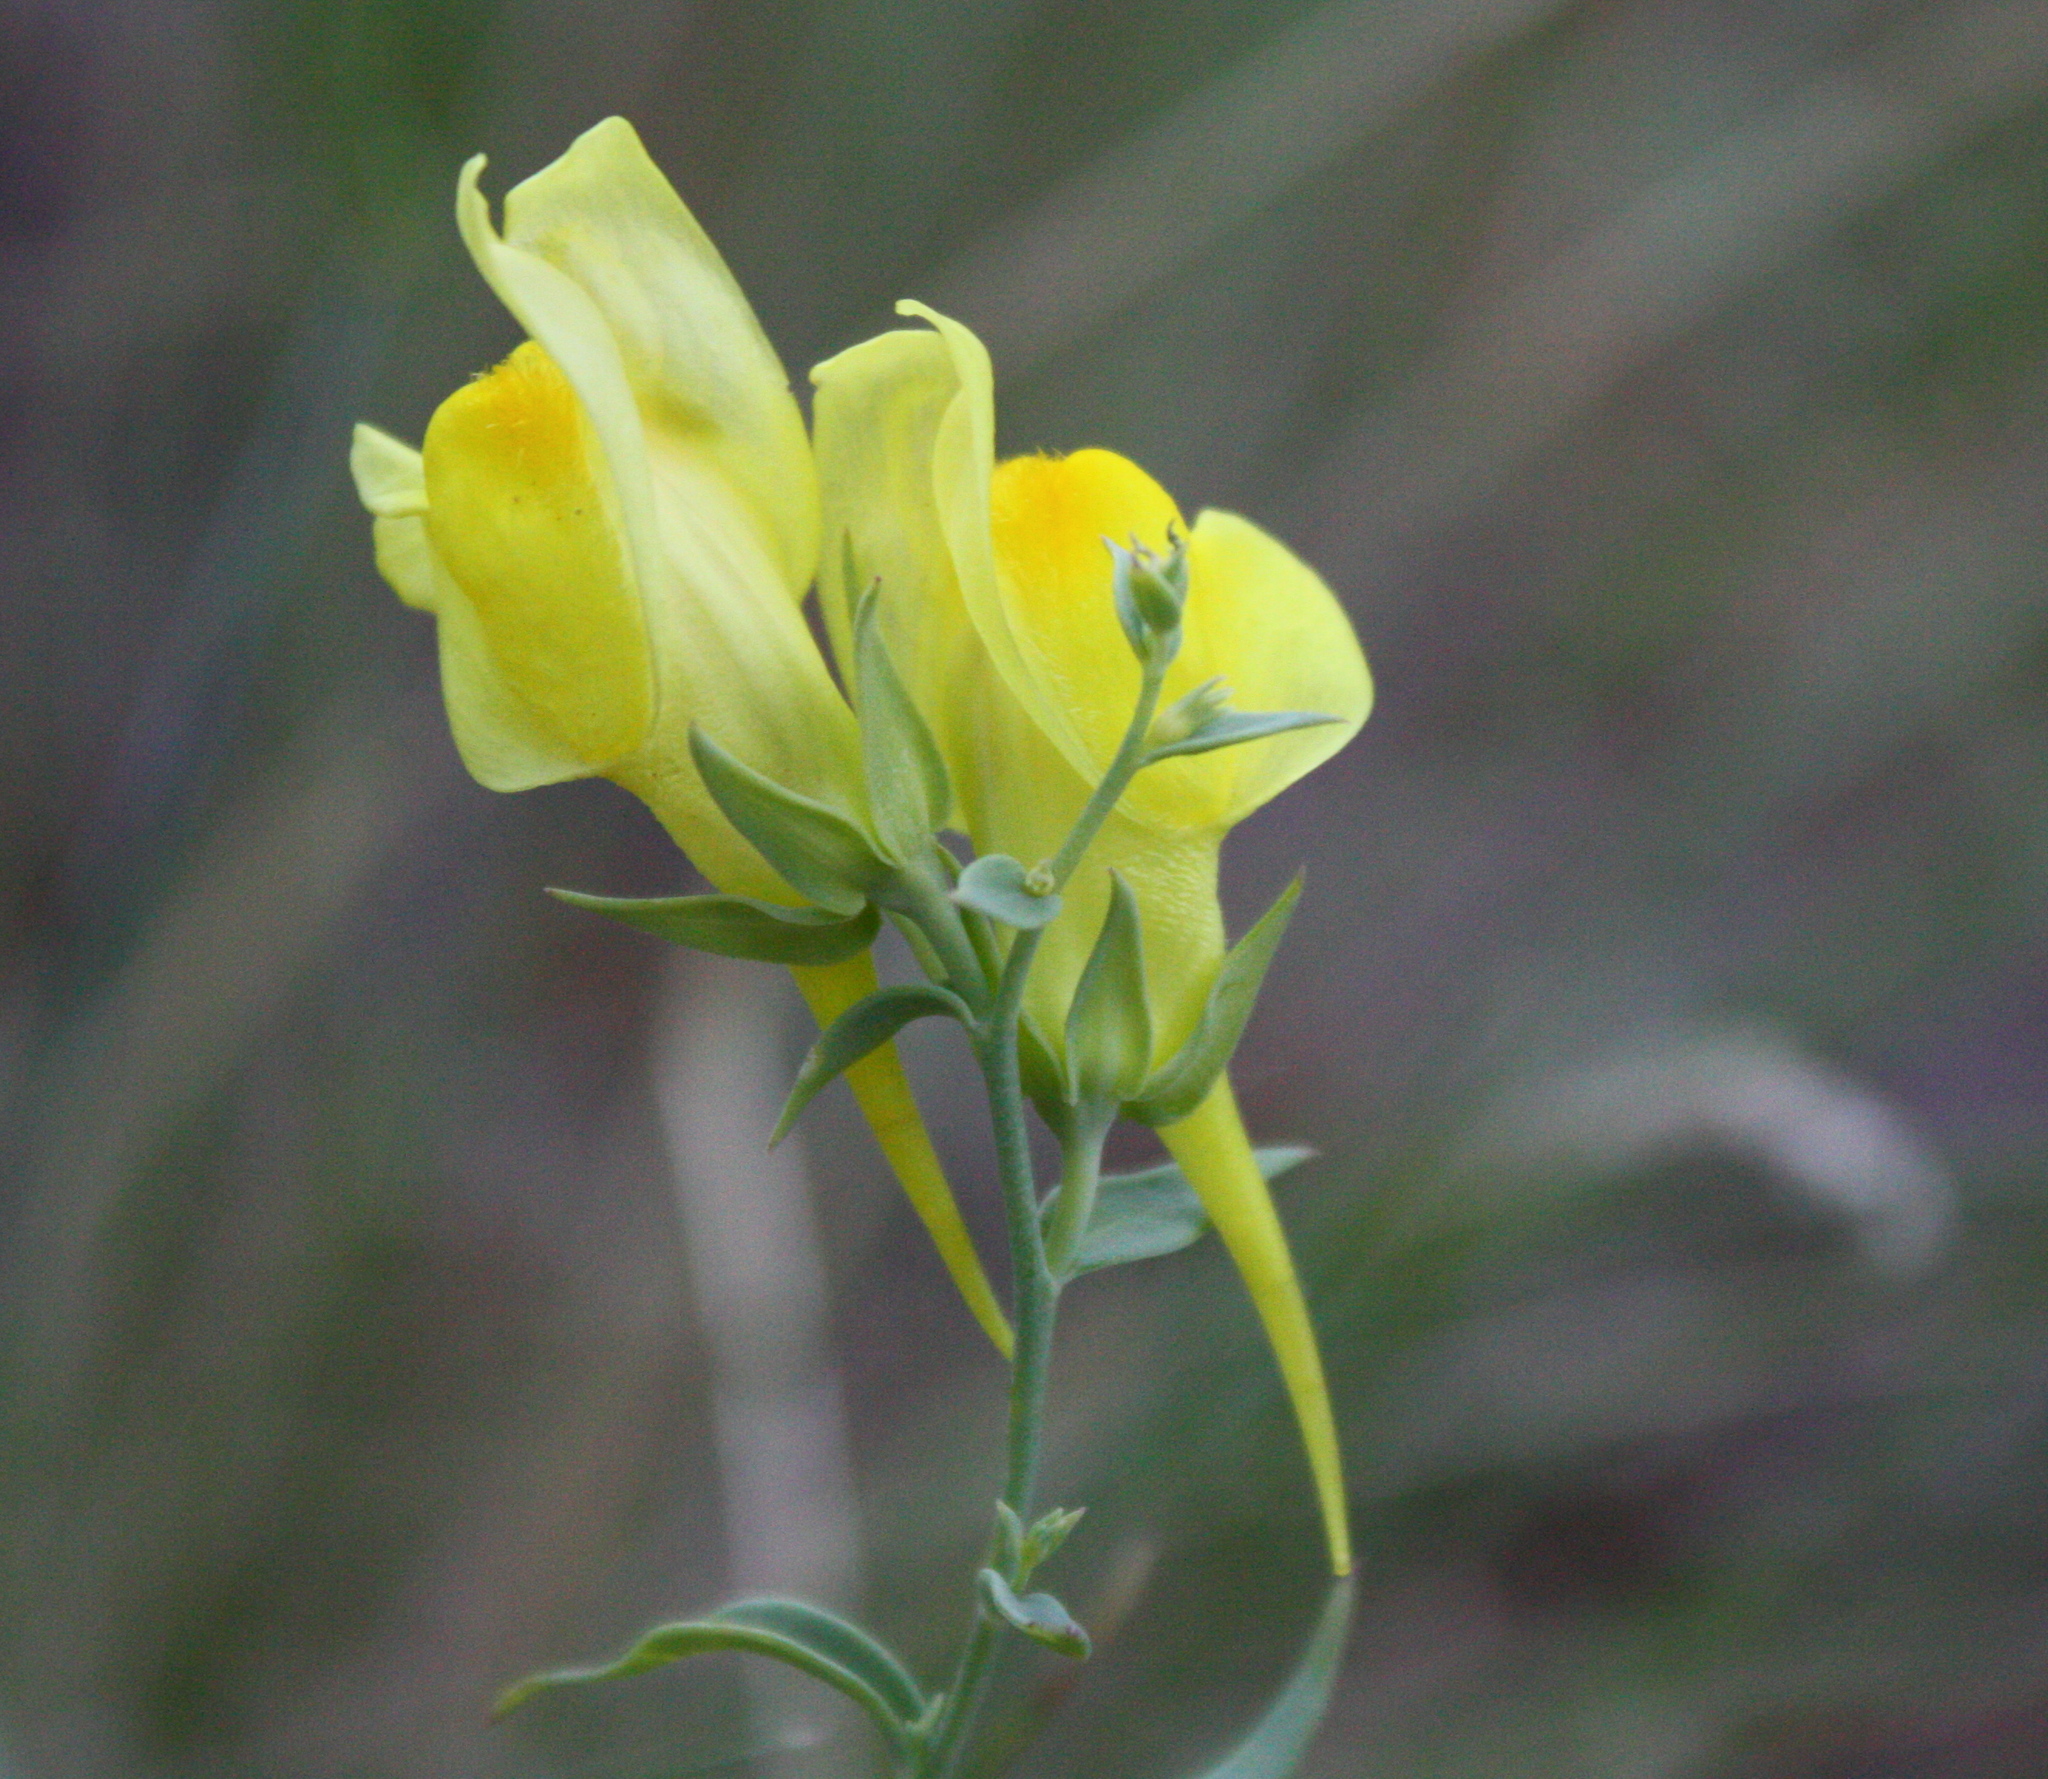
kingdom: Plantae
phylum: Tracheophyta
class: Magnoliopsida
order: Lamiales
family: Plantaginaceae
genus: Linaria
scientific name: Linaria dalmatica
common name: Dalmatian toadflax
